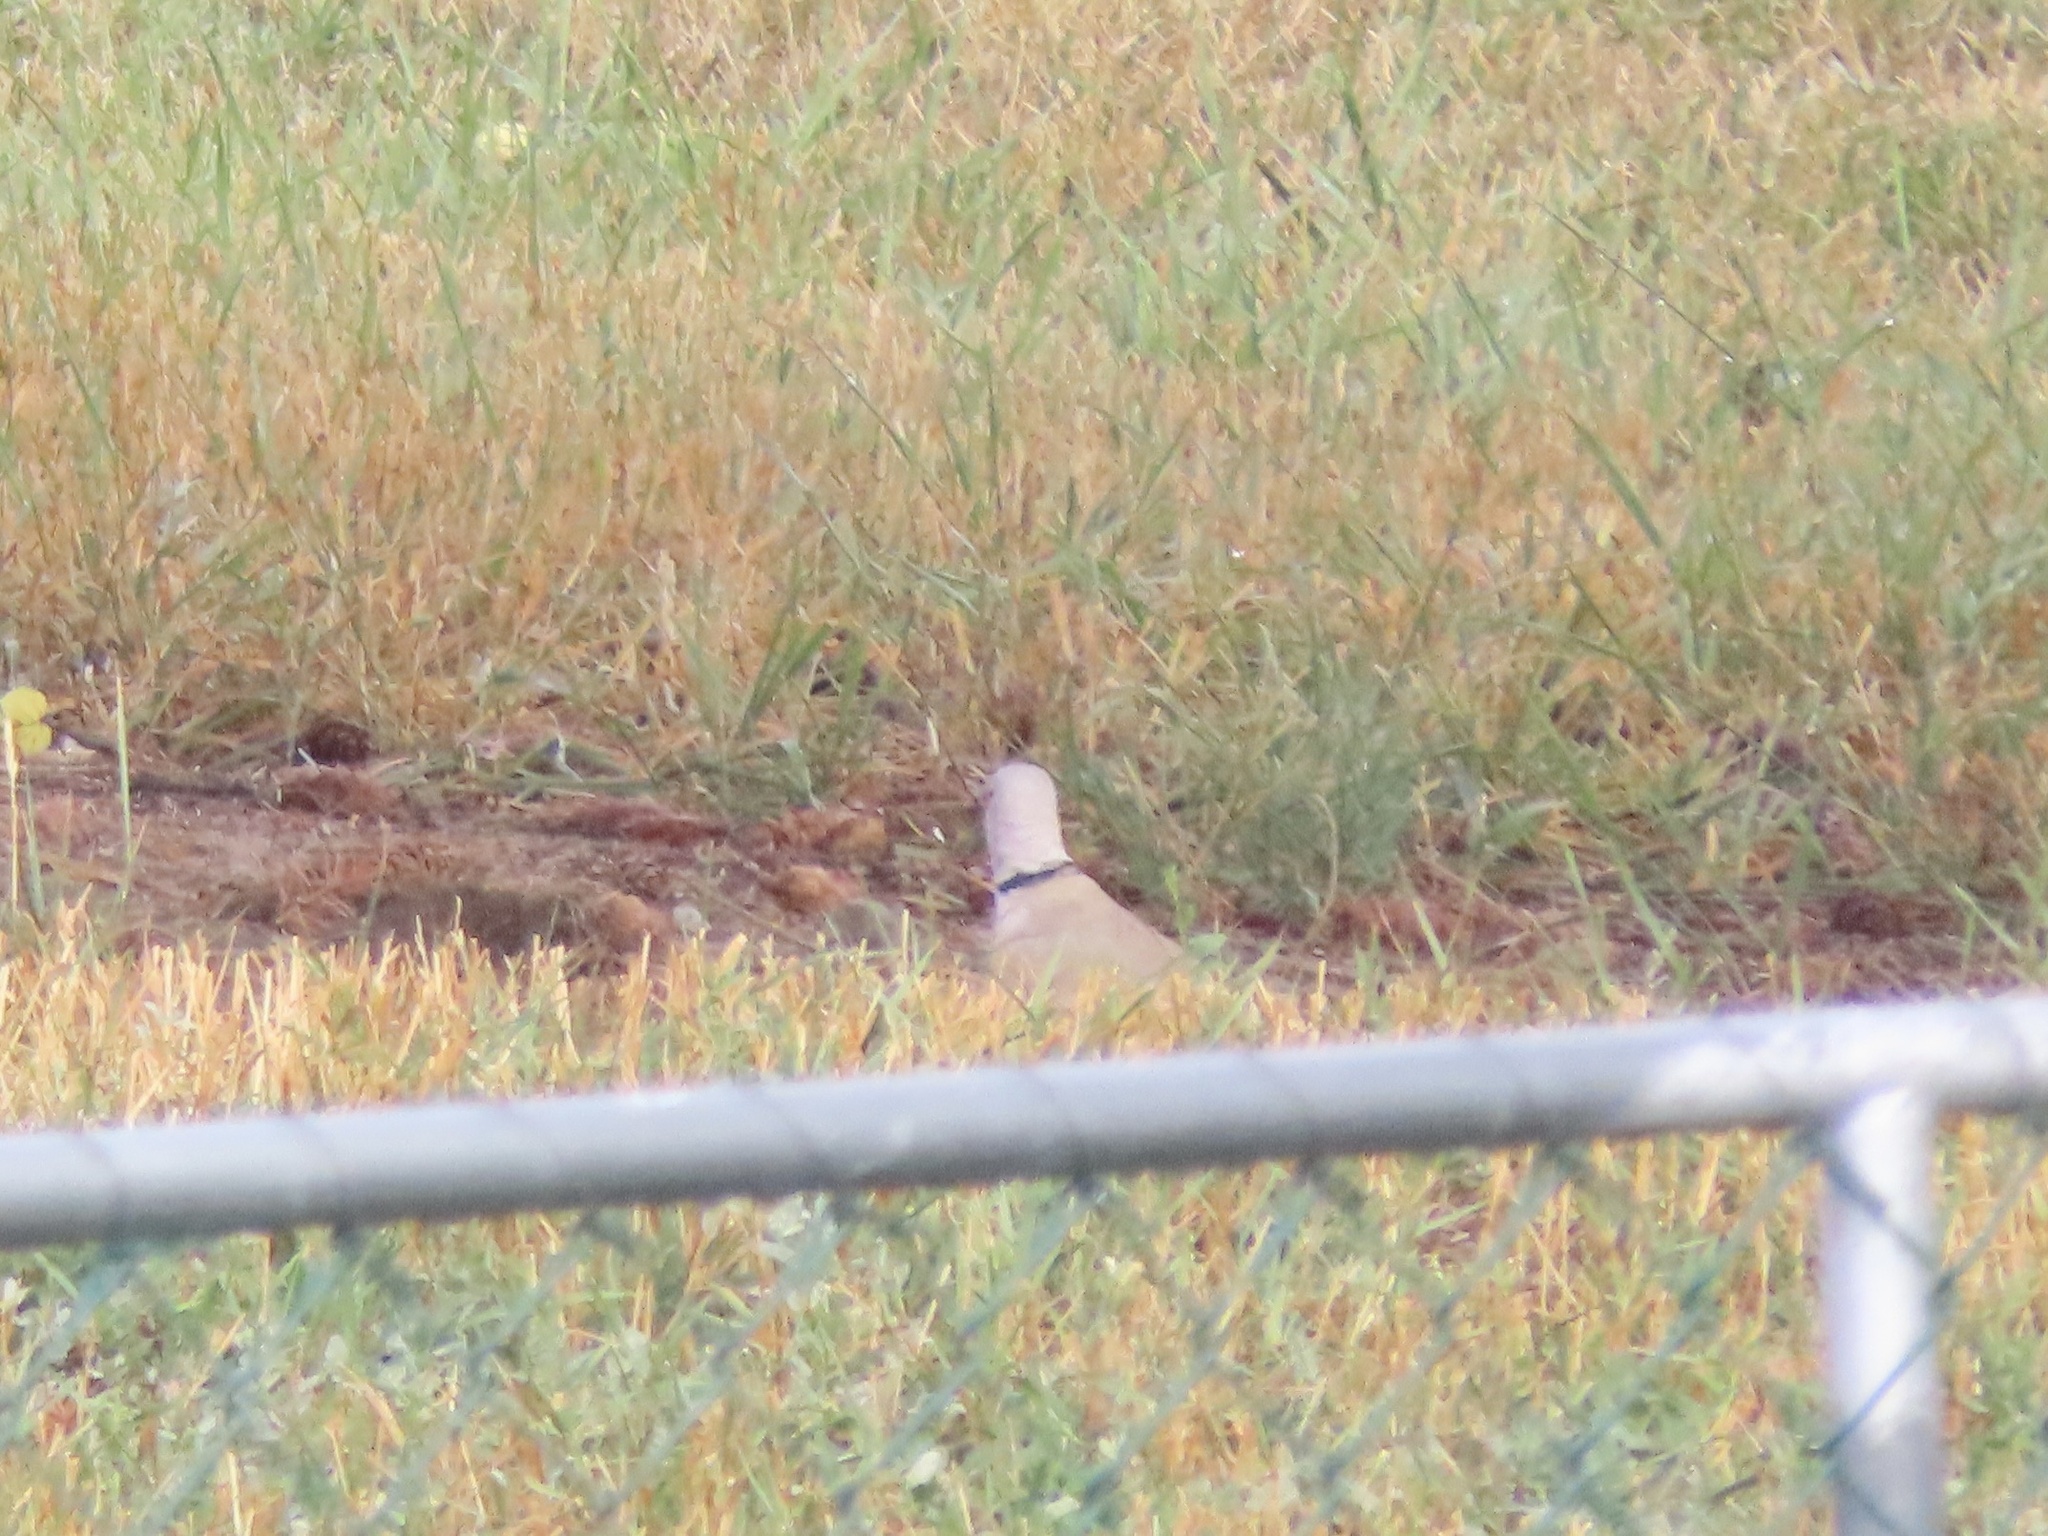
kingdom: Animalia
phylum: Chordata
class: Aves
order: Columbiformes
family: Columbidae
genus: Streptopelia
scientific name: Streptopelia decaocto
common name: Eurasian collared dove
